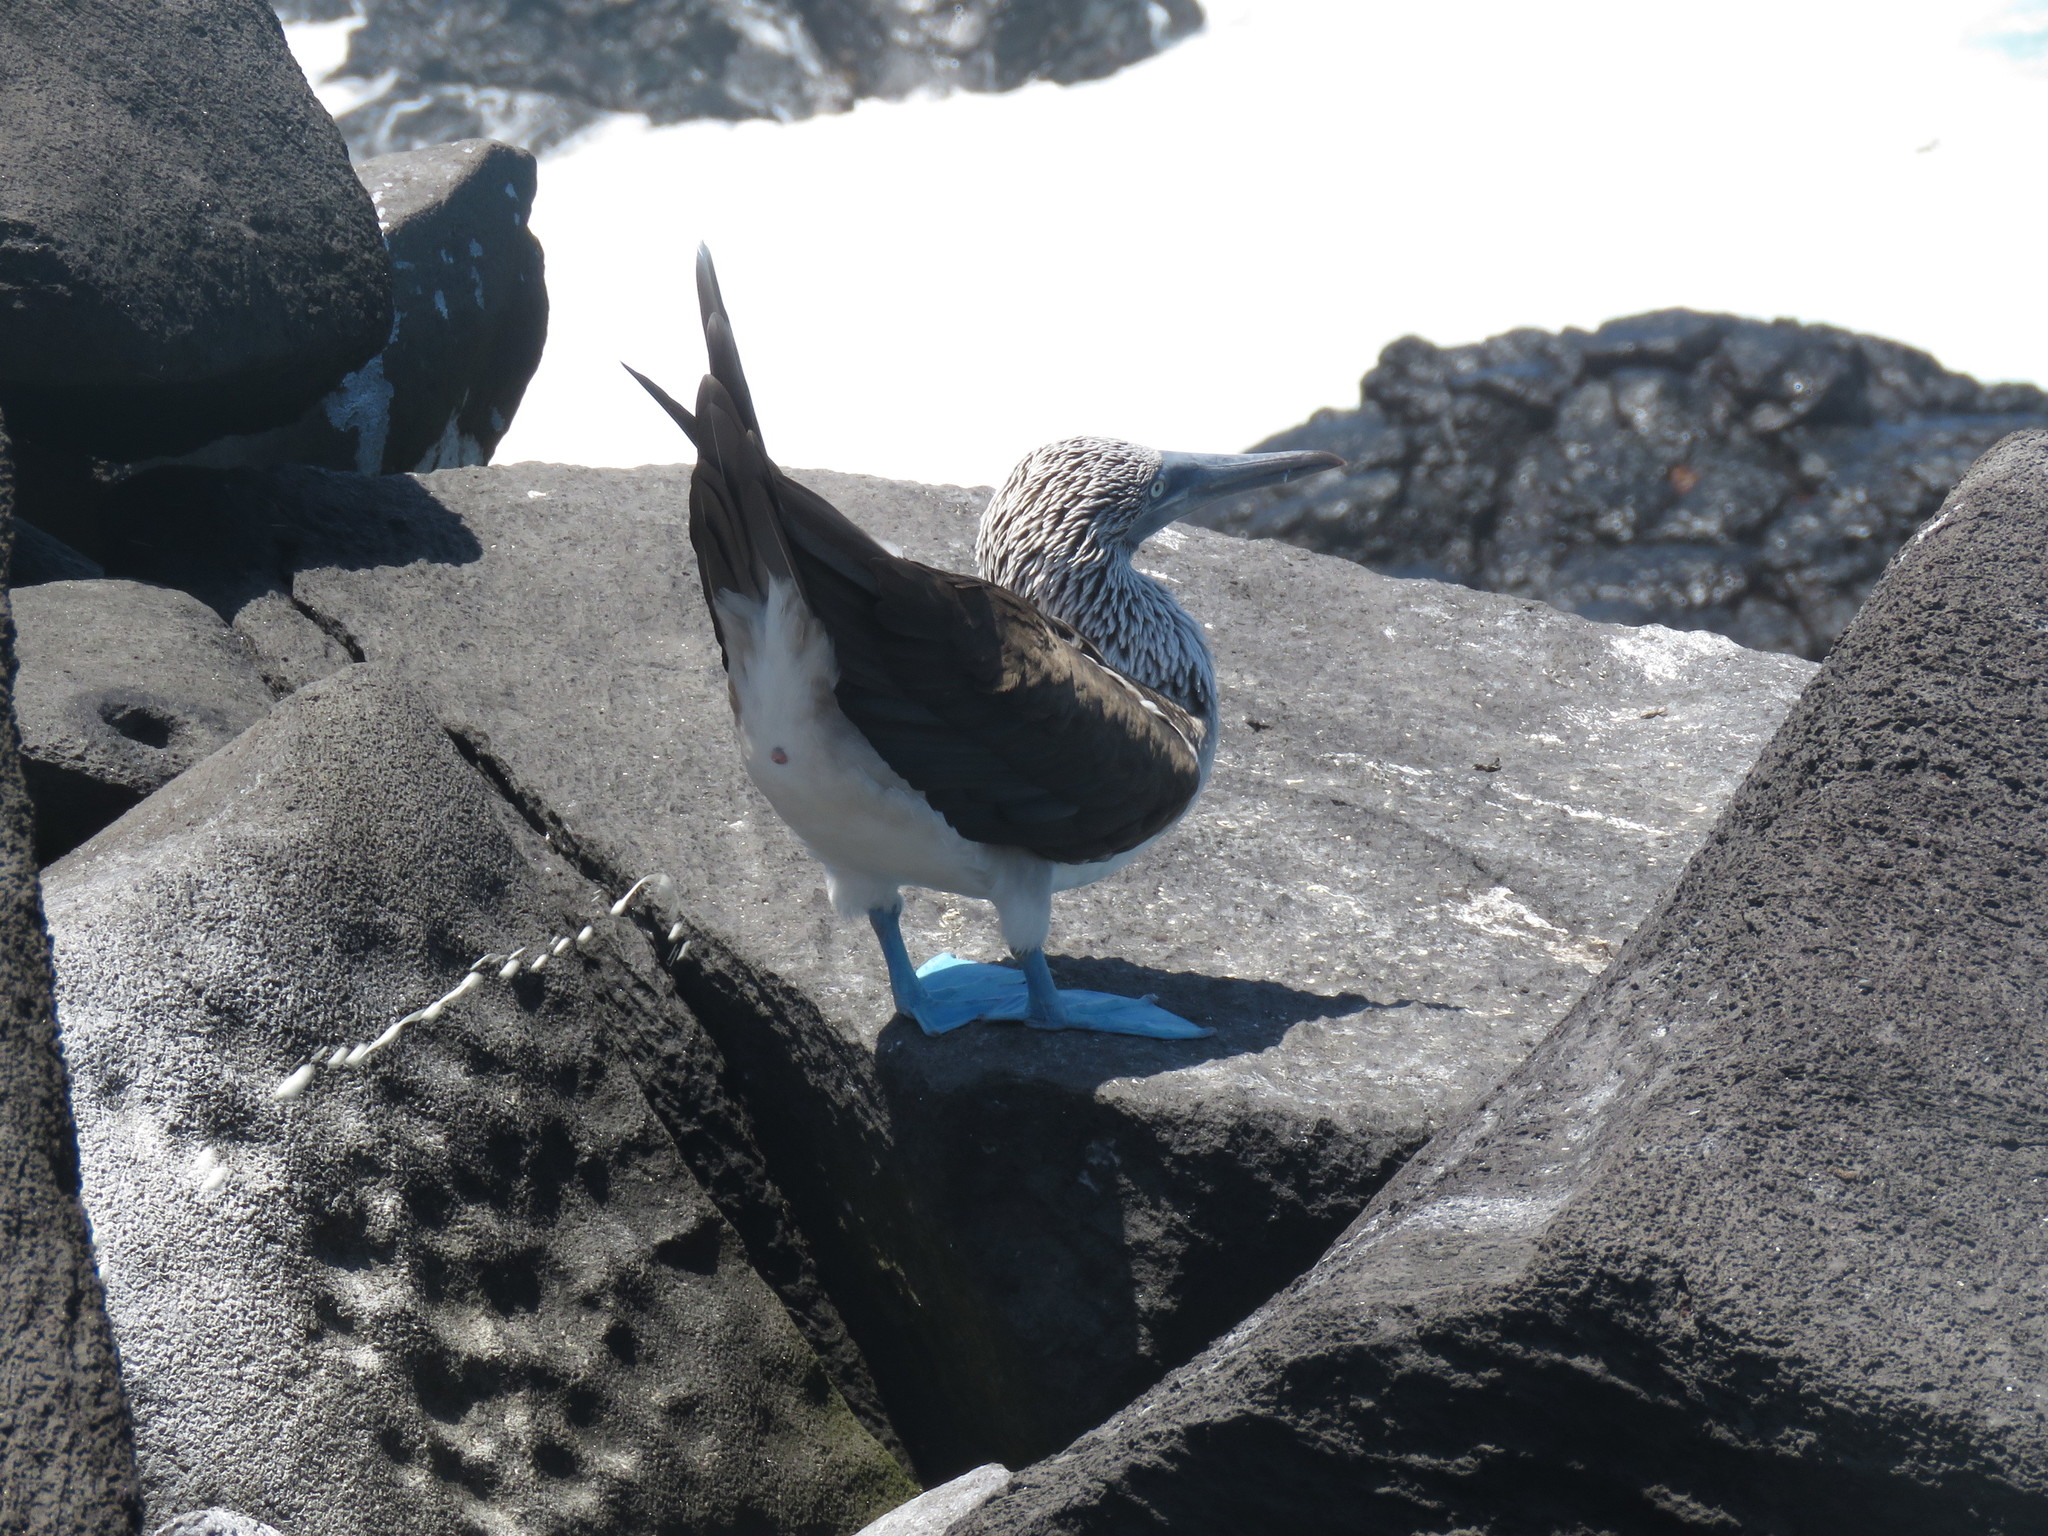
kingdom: Animalia
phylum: Chordata
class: Aves
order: Suliformes
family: Sulidae
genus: Sula
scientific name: Sula nebouxii
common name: Blue-footed booby
